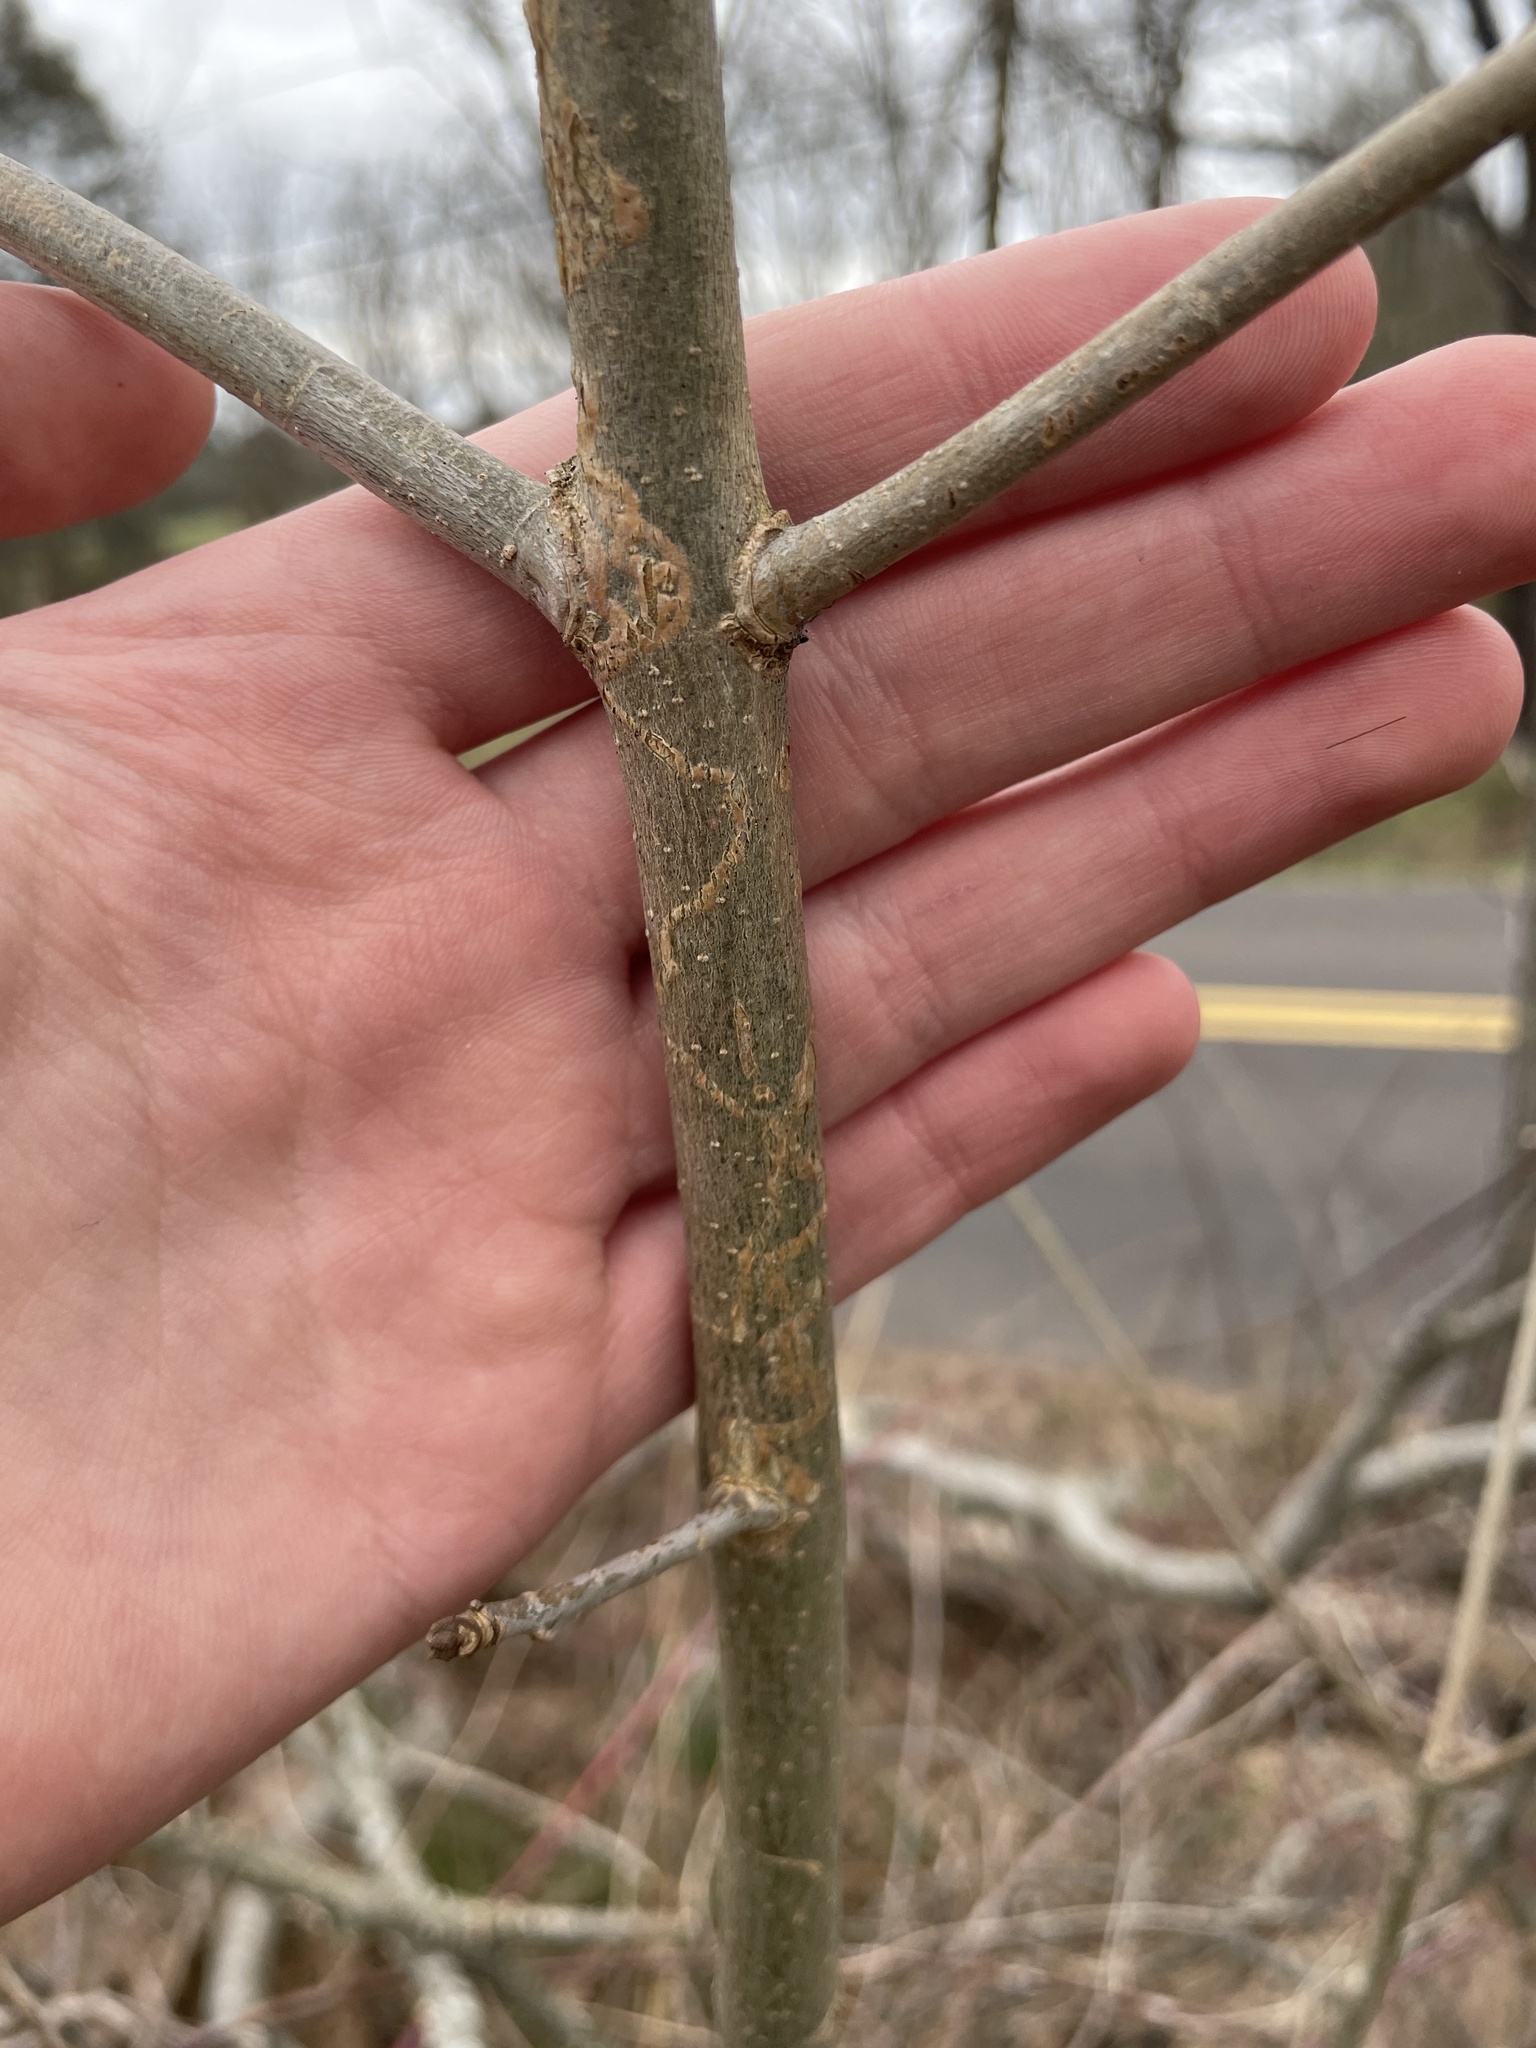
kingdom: Animalia
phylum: Arthropoda
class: Insecta
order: Lepidoptera
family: Gracillariidae
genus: Marmara
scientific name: Marmara fraxinicola
